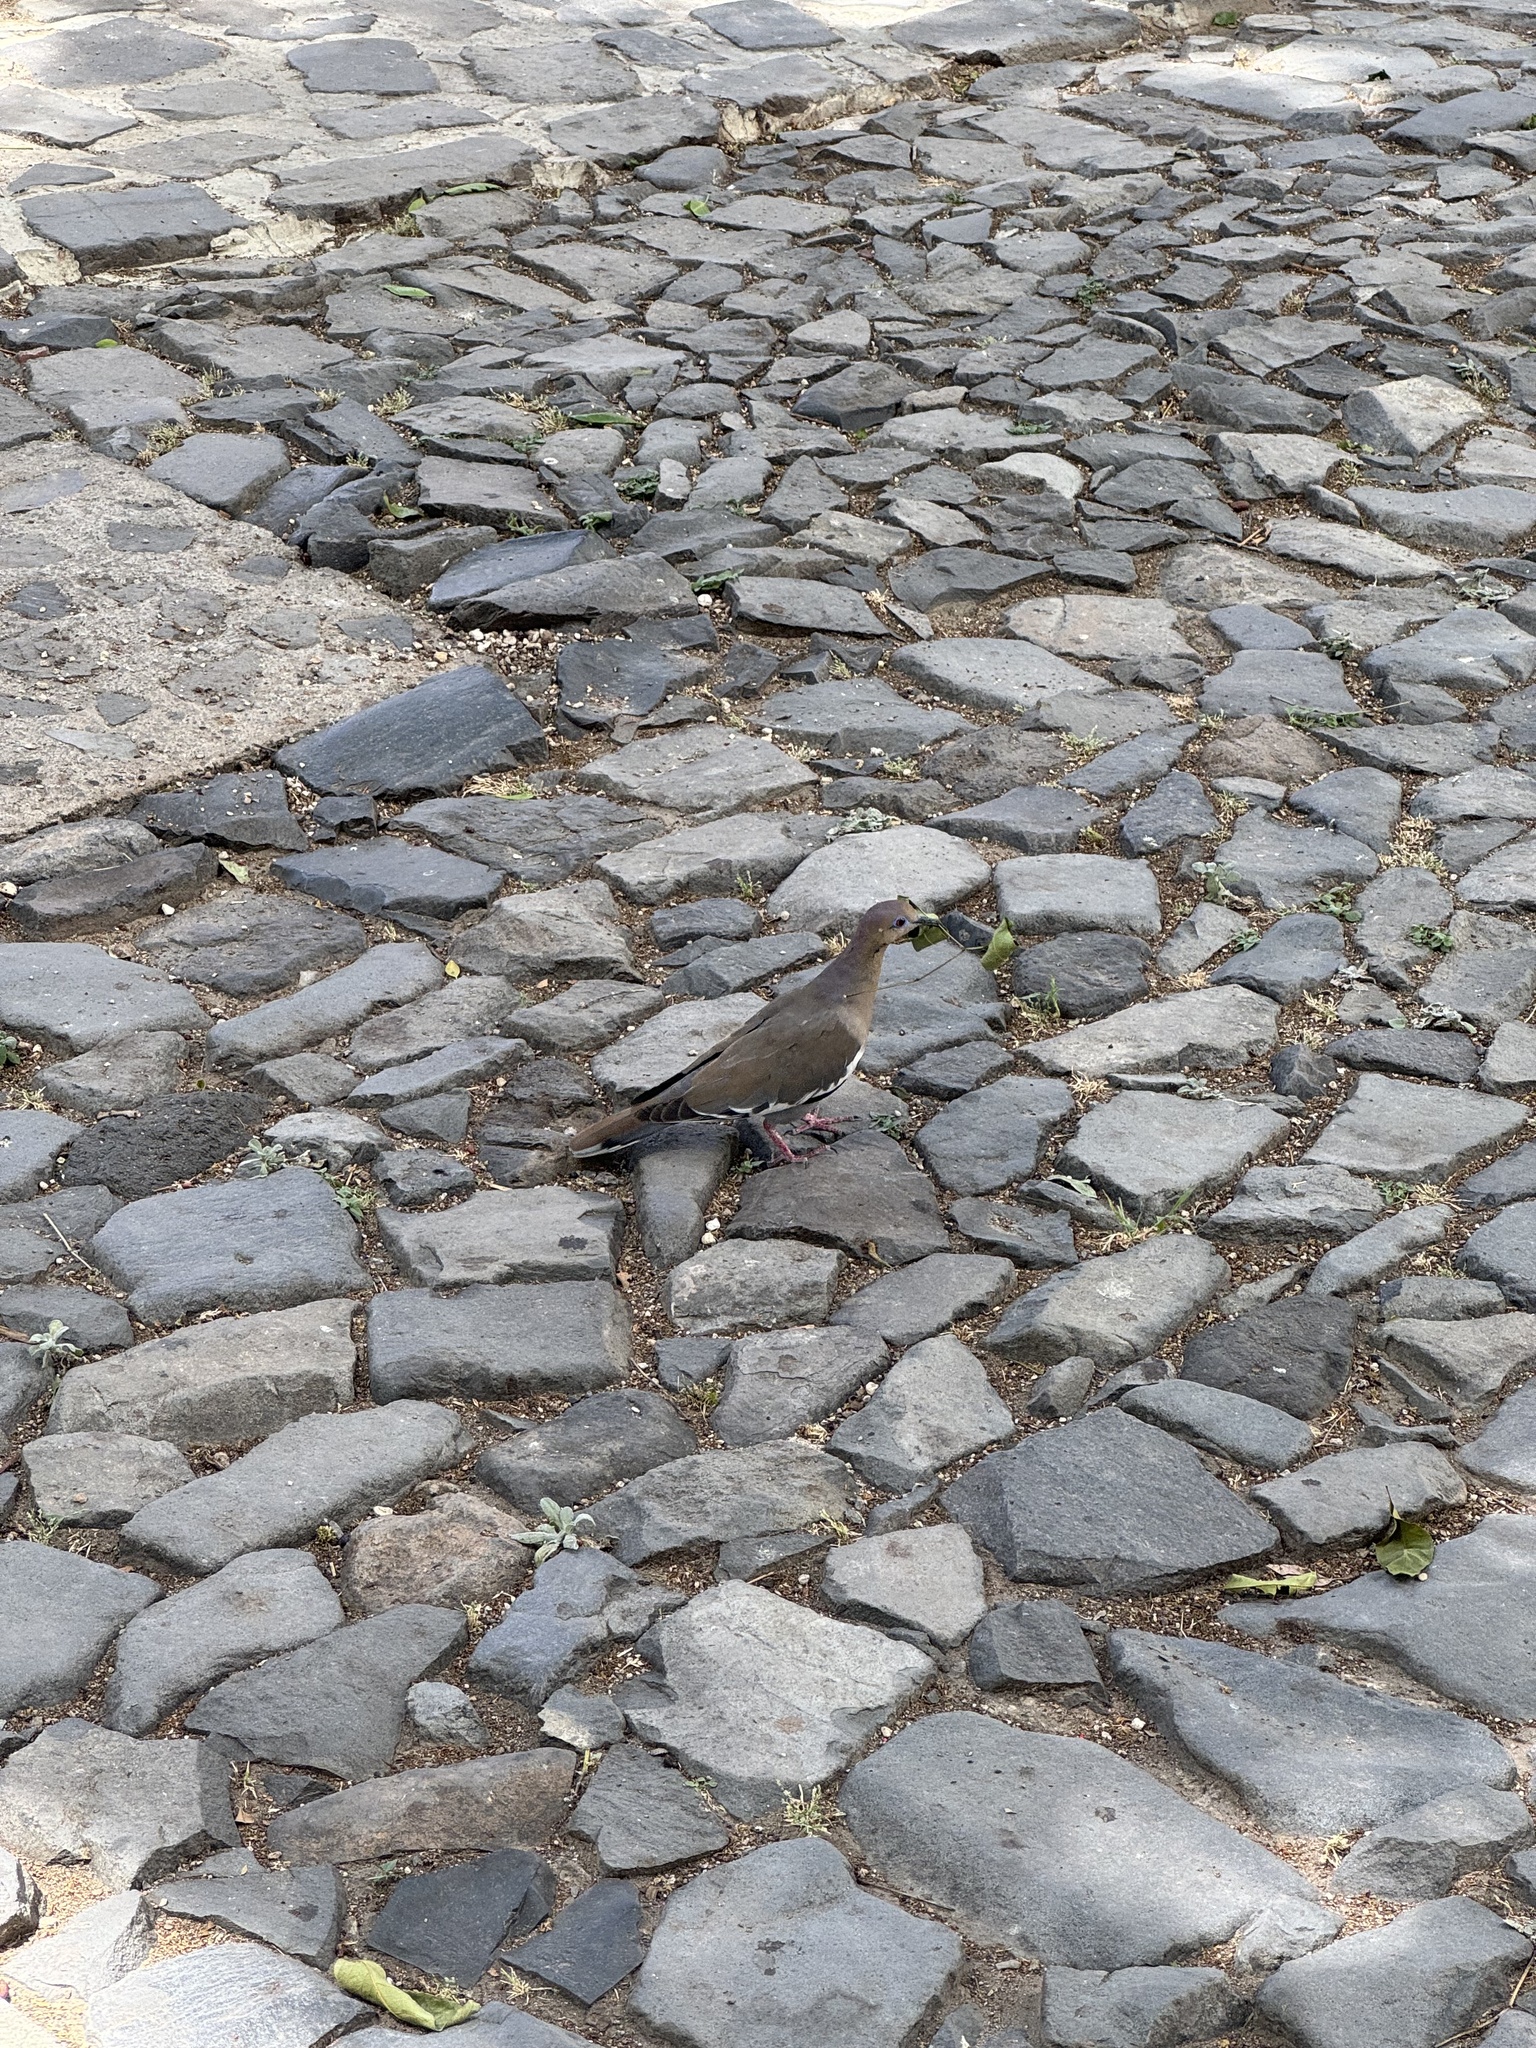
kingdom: Animalia
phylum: Chordata
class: Aves
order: Columbiformes
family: Columbidae
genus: Zenaida
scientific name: Zenaida asiatica
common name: White-winged dove
